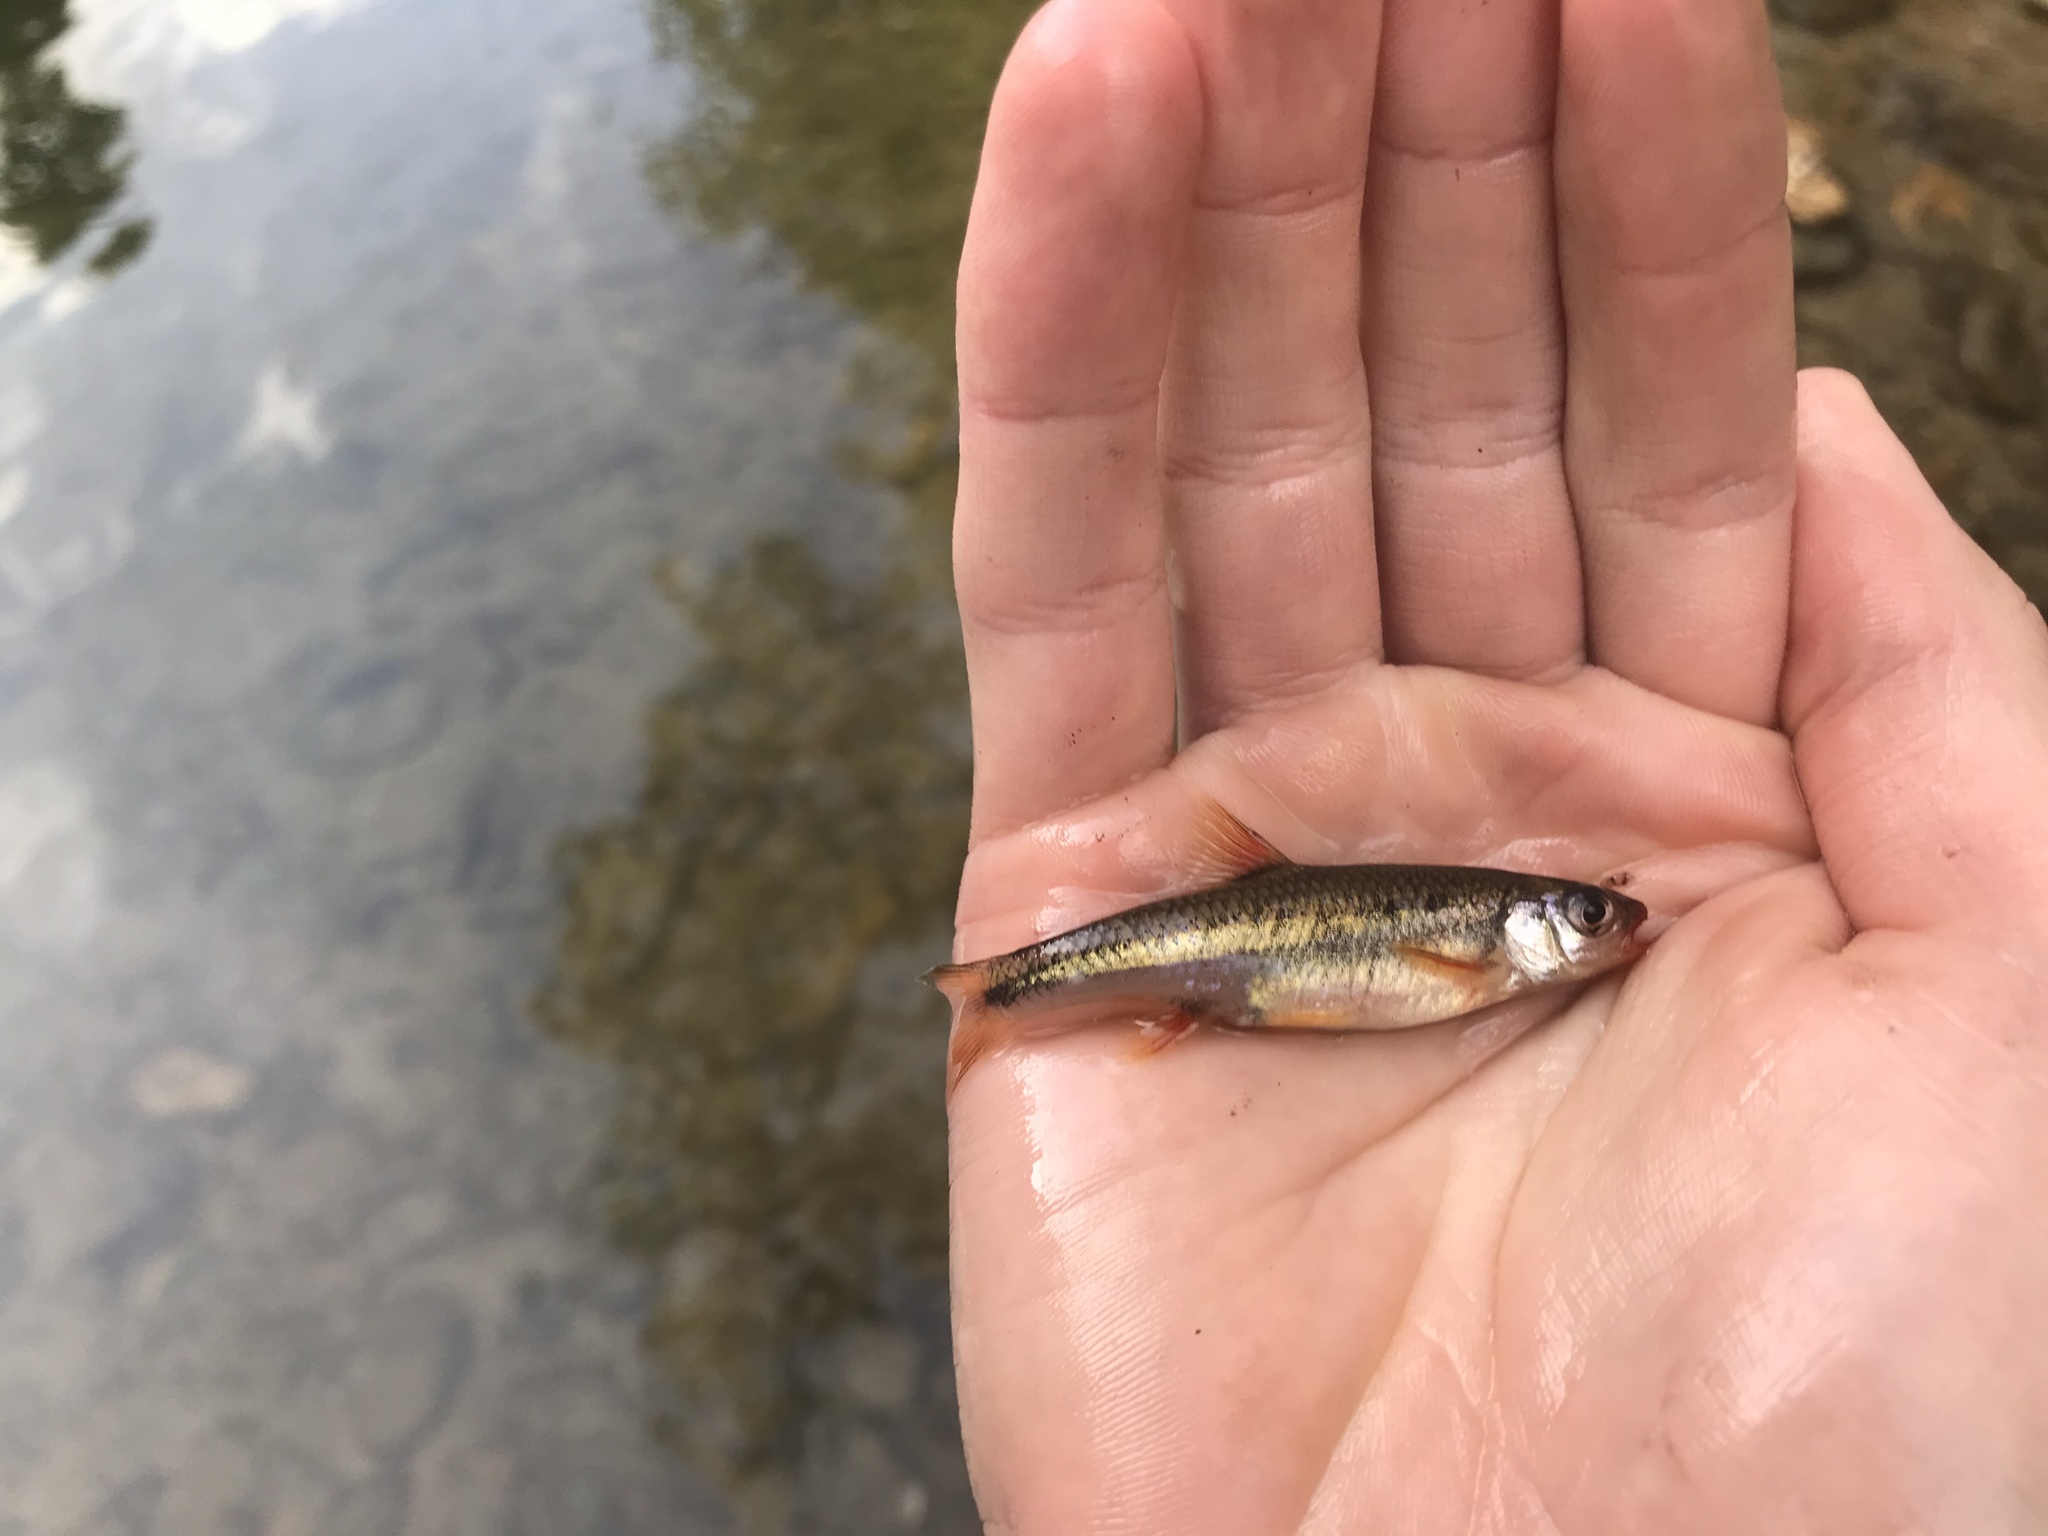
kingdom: Animalia
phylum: Chordata
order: Cypriniformes
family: Cyprinidae
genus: Notropis
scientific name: Notropis
